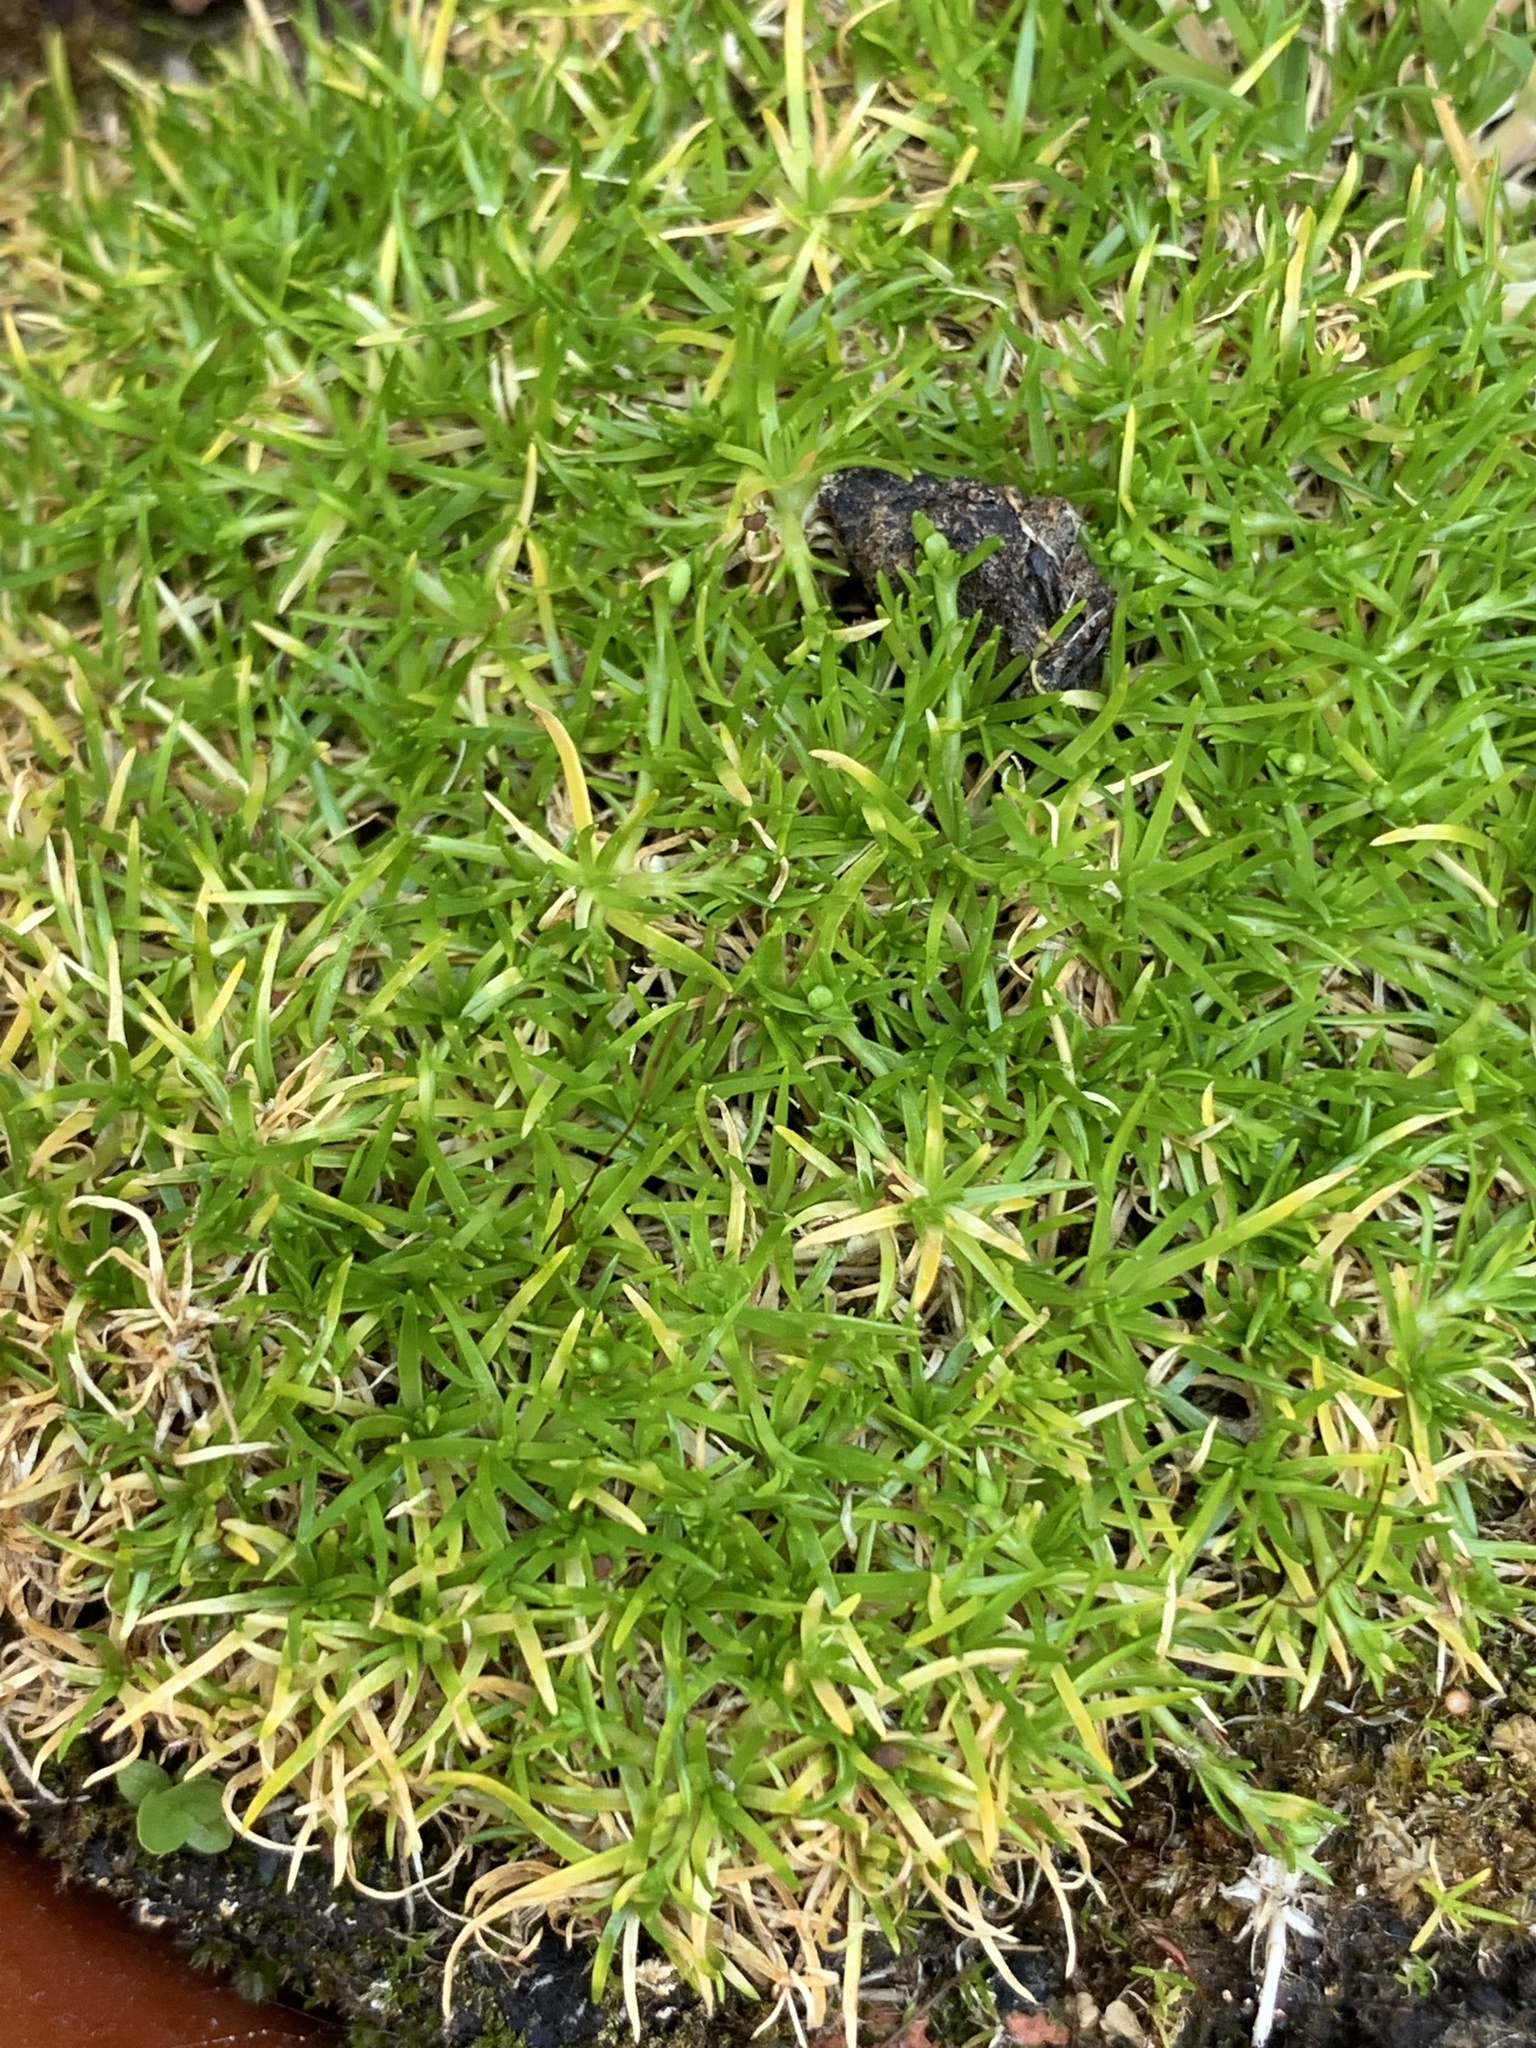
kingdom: Plantae
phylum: Tracheophyta
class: Magnoliopsida
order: Caryophyllales
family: Caryophyllaceae
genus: Sagina
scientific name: Sagina procumbens
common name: Procumbent pearlwort
